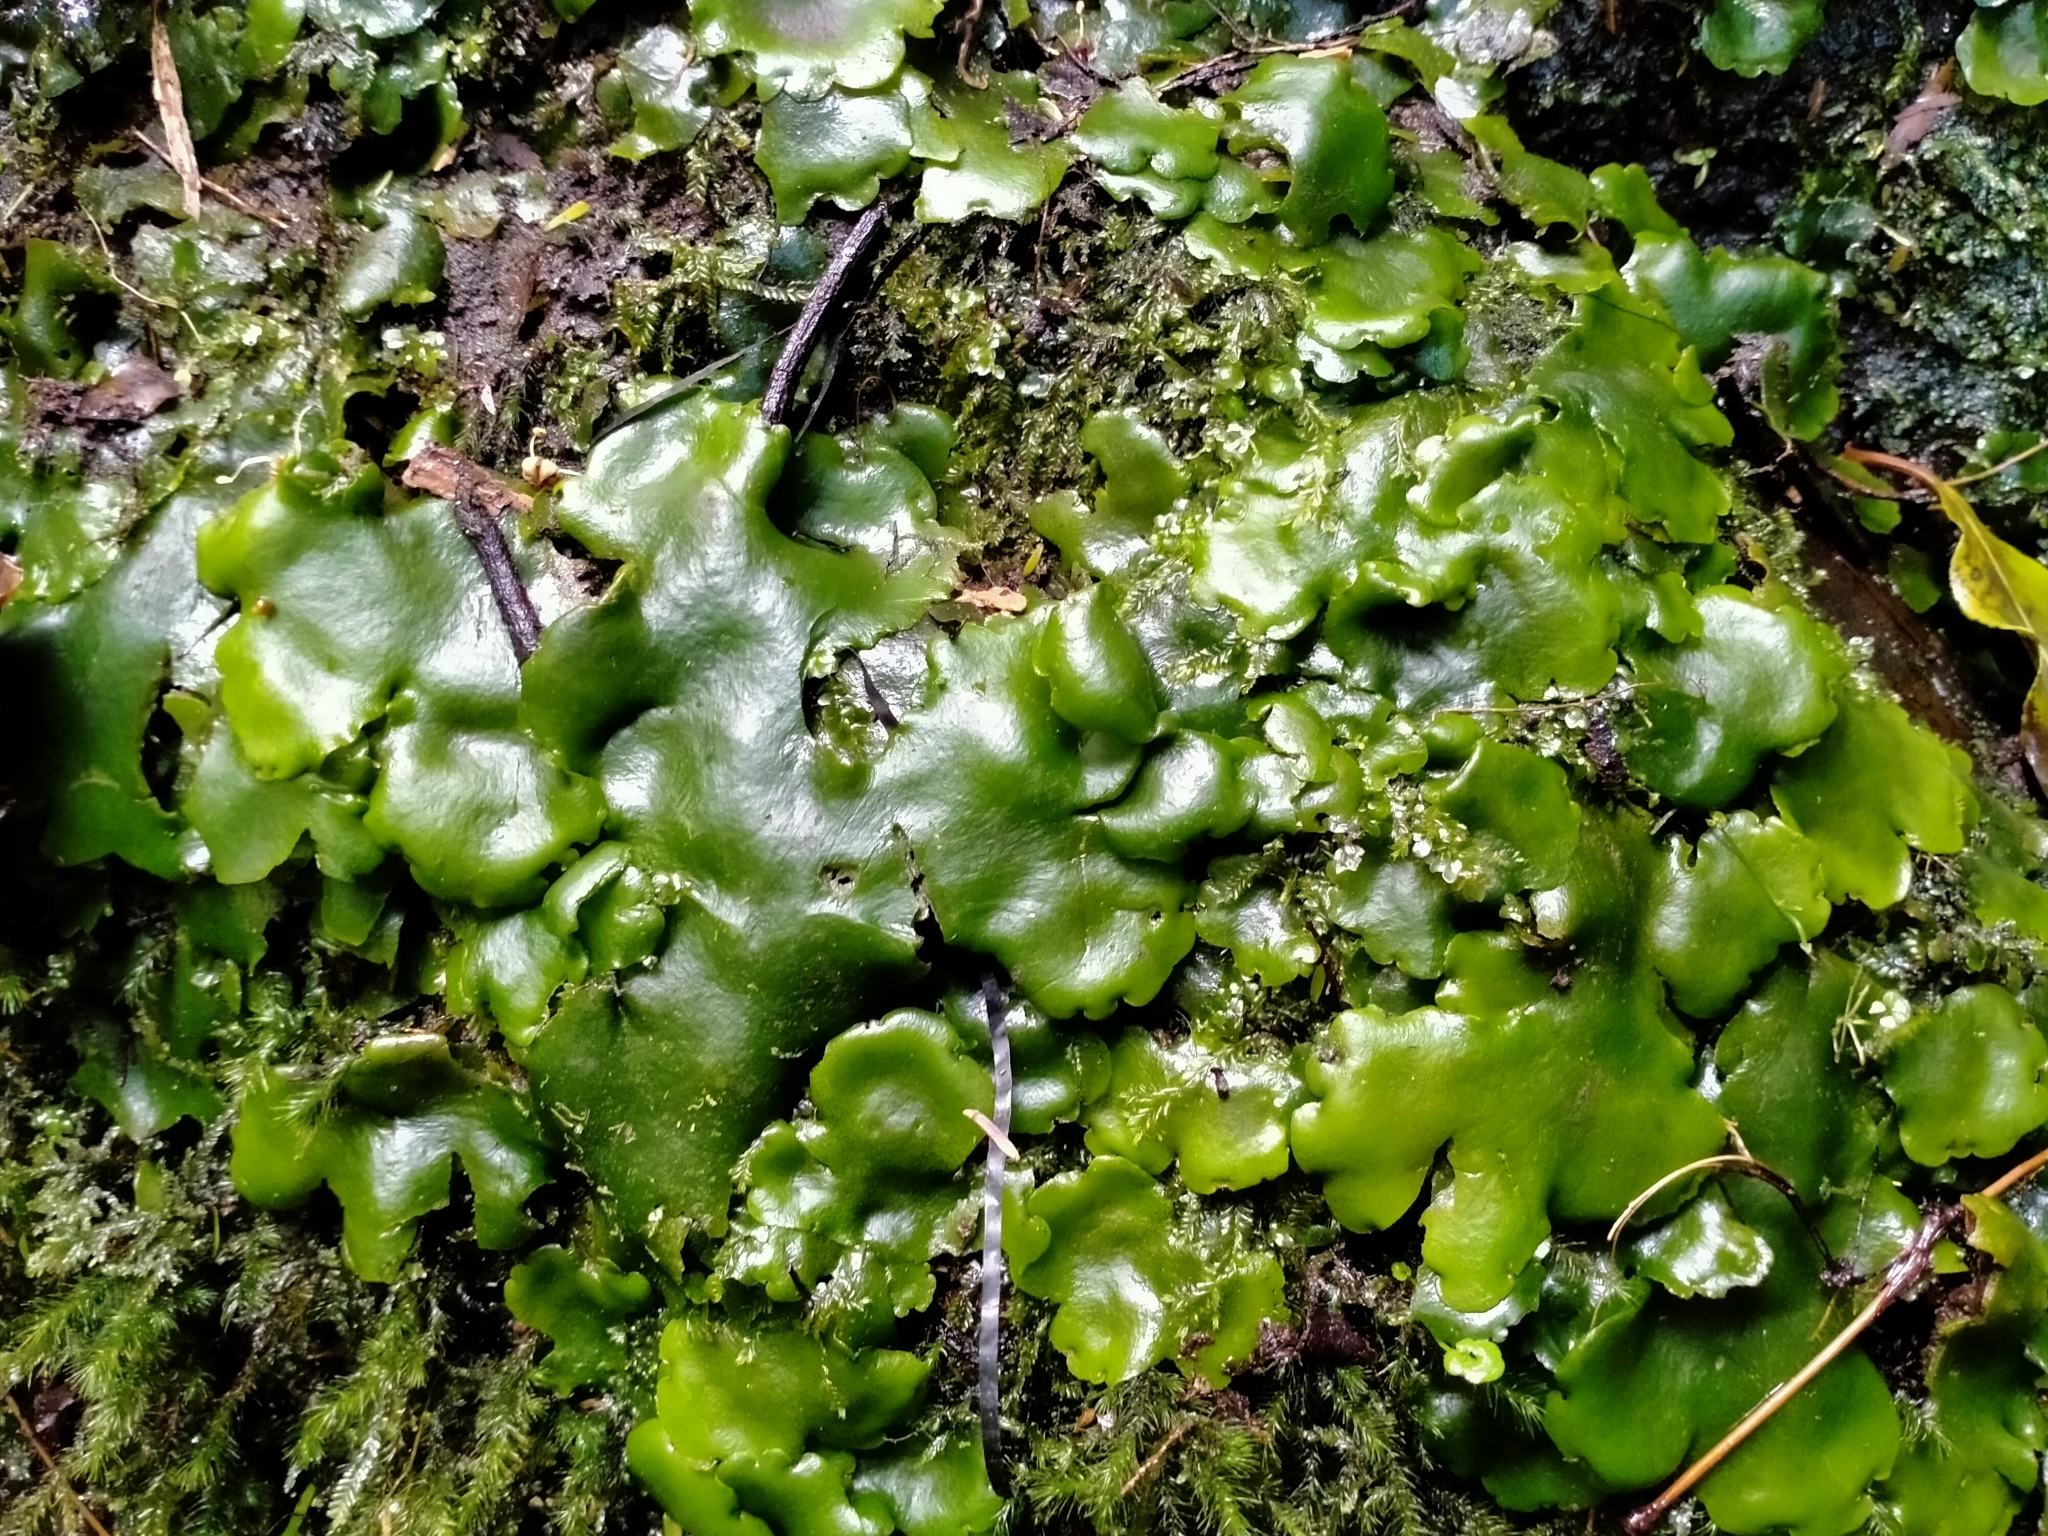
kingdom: Plantae
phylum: Marchantiophyta
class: Marchantiopsida
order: Marchantiales
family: Monocleaceae
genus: Monoclea
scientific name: Monoclea forsteri
